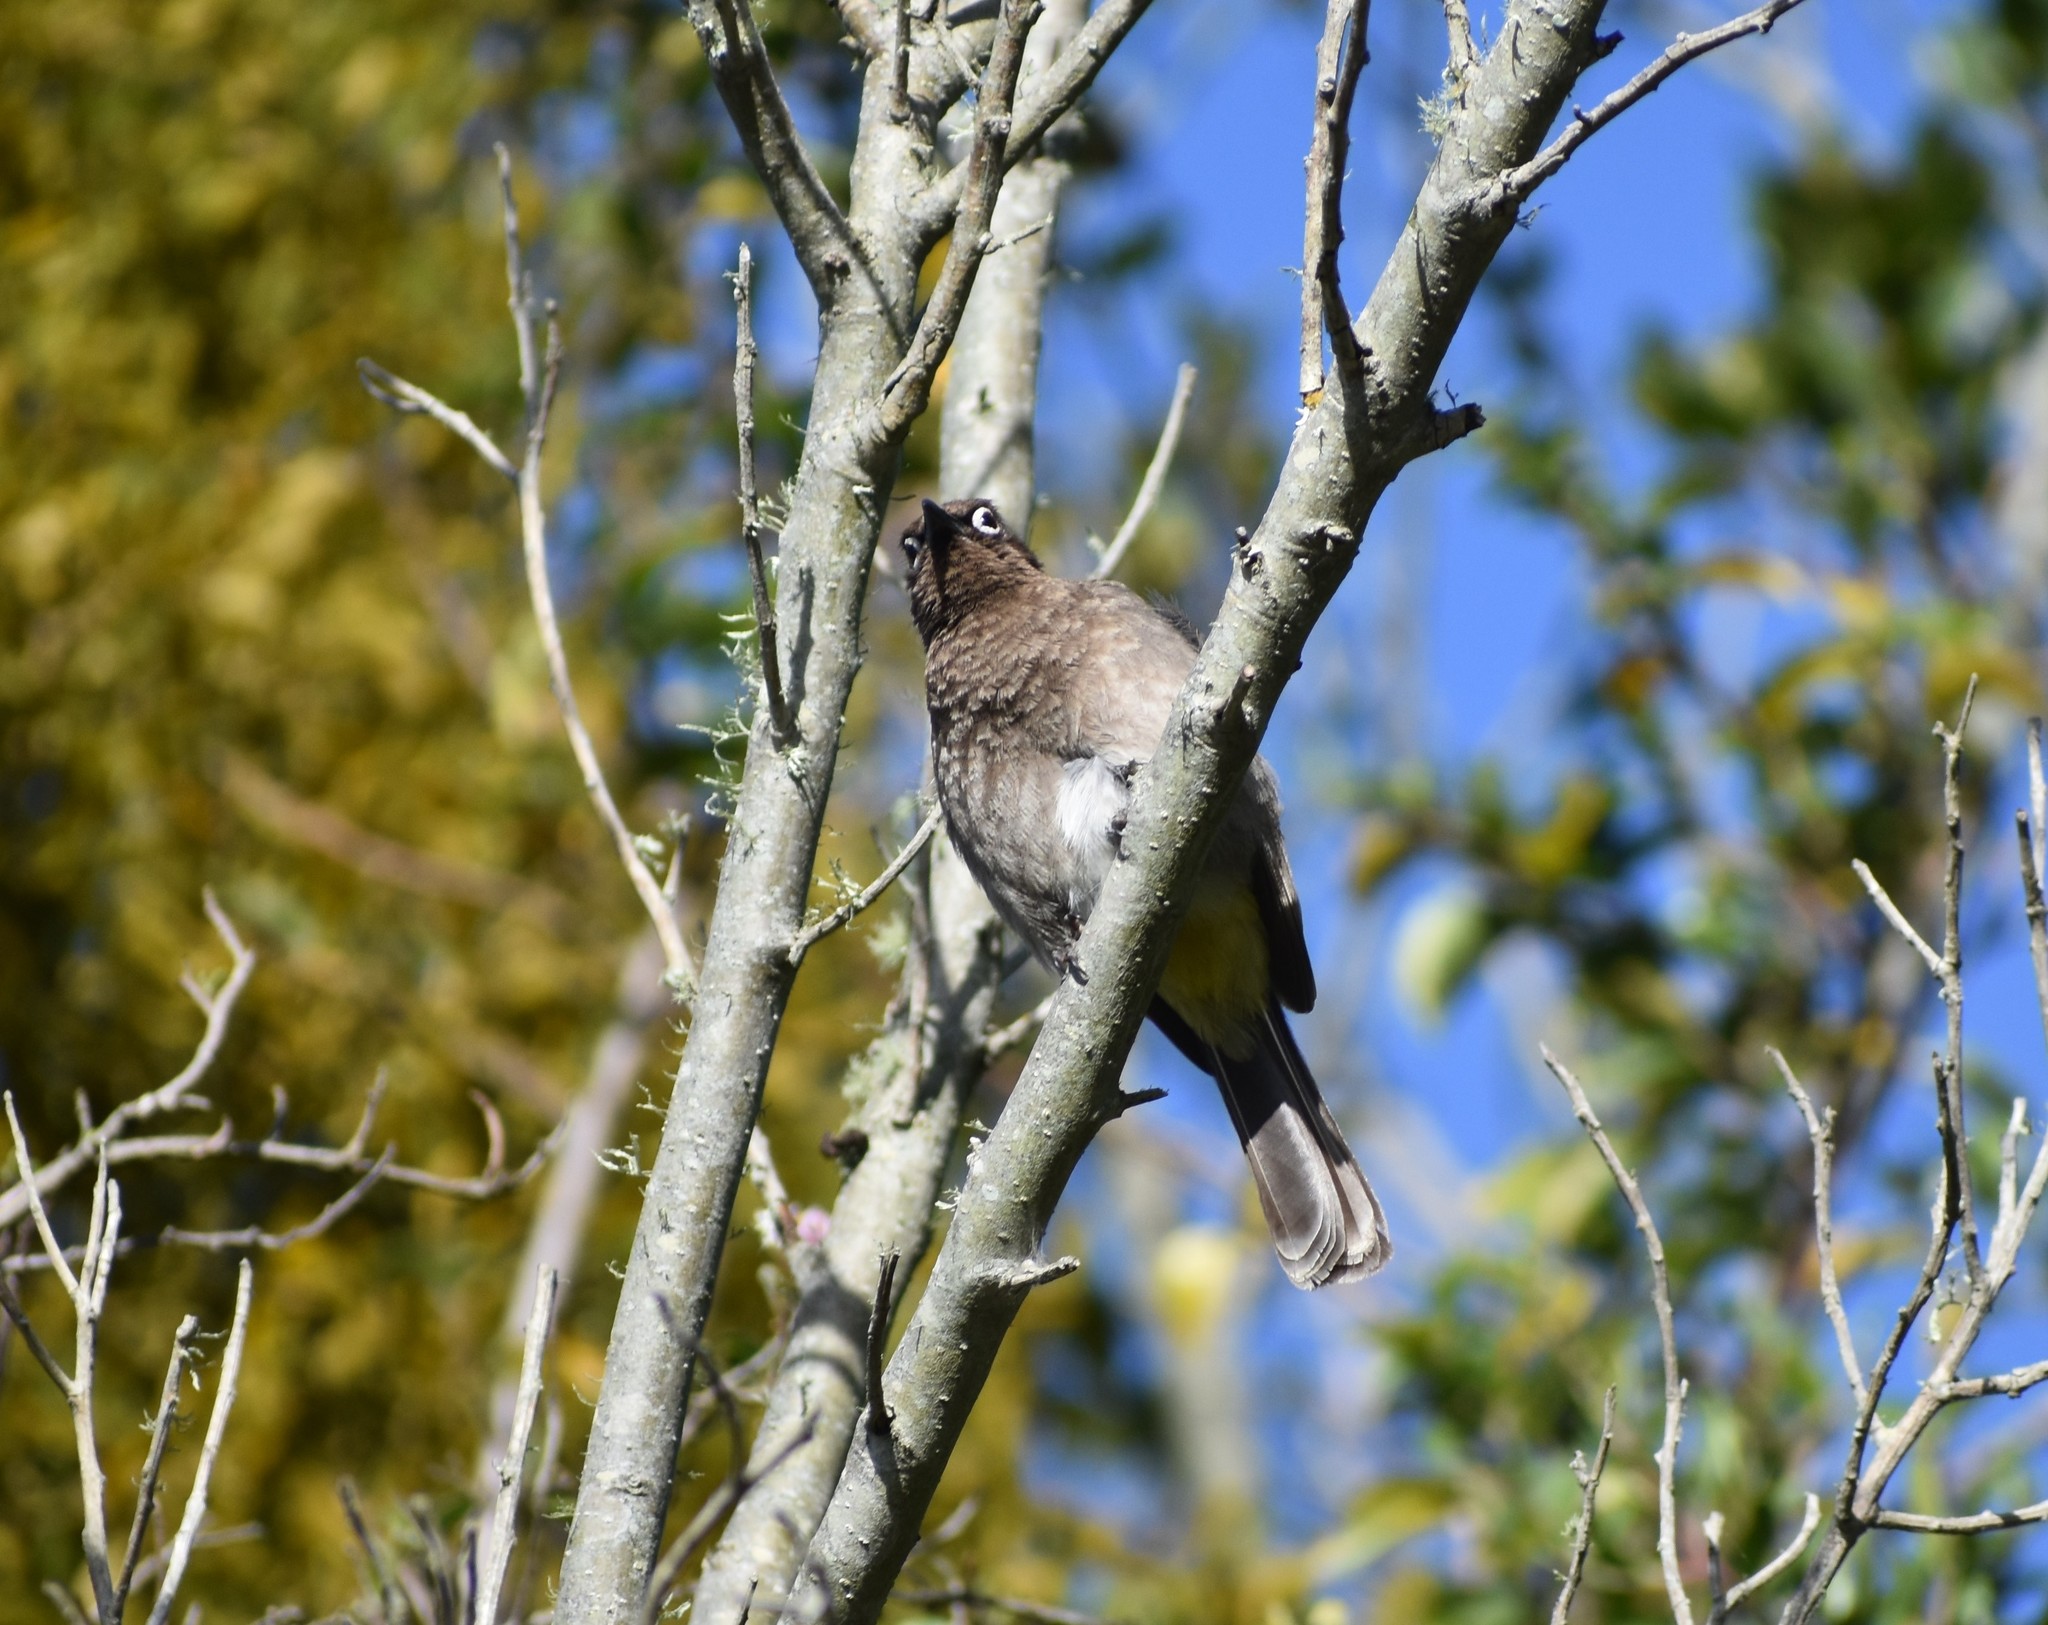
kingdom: Animalia
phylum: Chordata
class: Aves
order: Passeriformes
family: Pycnonotidae
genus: Pycnonotus
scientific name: Pycnonotus capensis
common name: Cape bulbul
